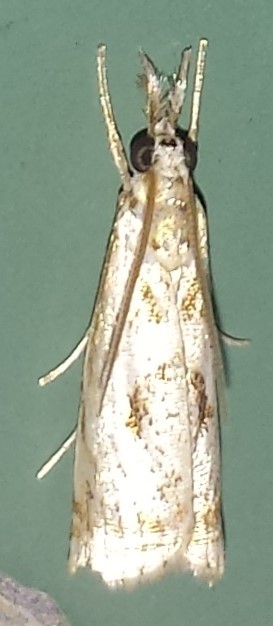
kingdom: Animalia
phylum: Arthropoda
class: Insecta
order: Lepidoptera
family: Crambidae
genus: Microcrambus
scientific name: Microcrambus elegans
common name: Elegant grass-veneer
